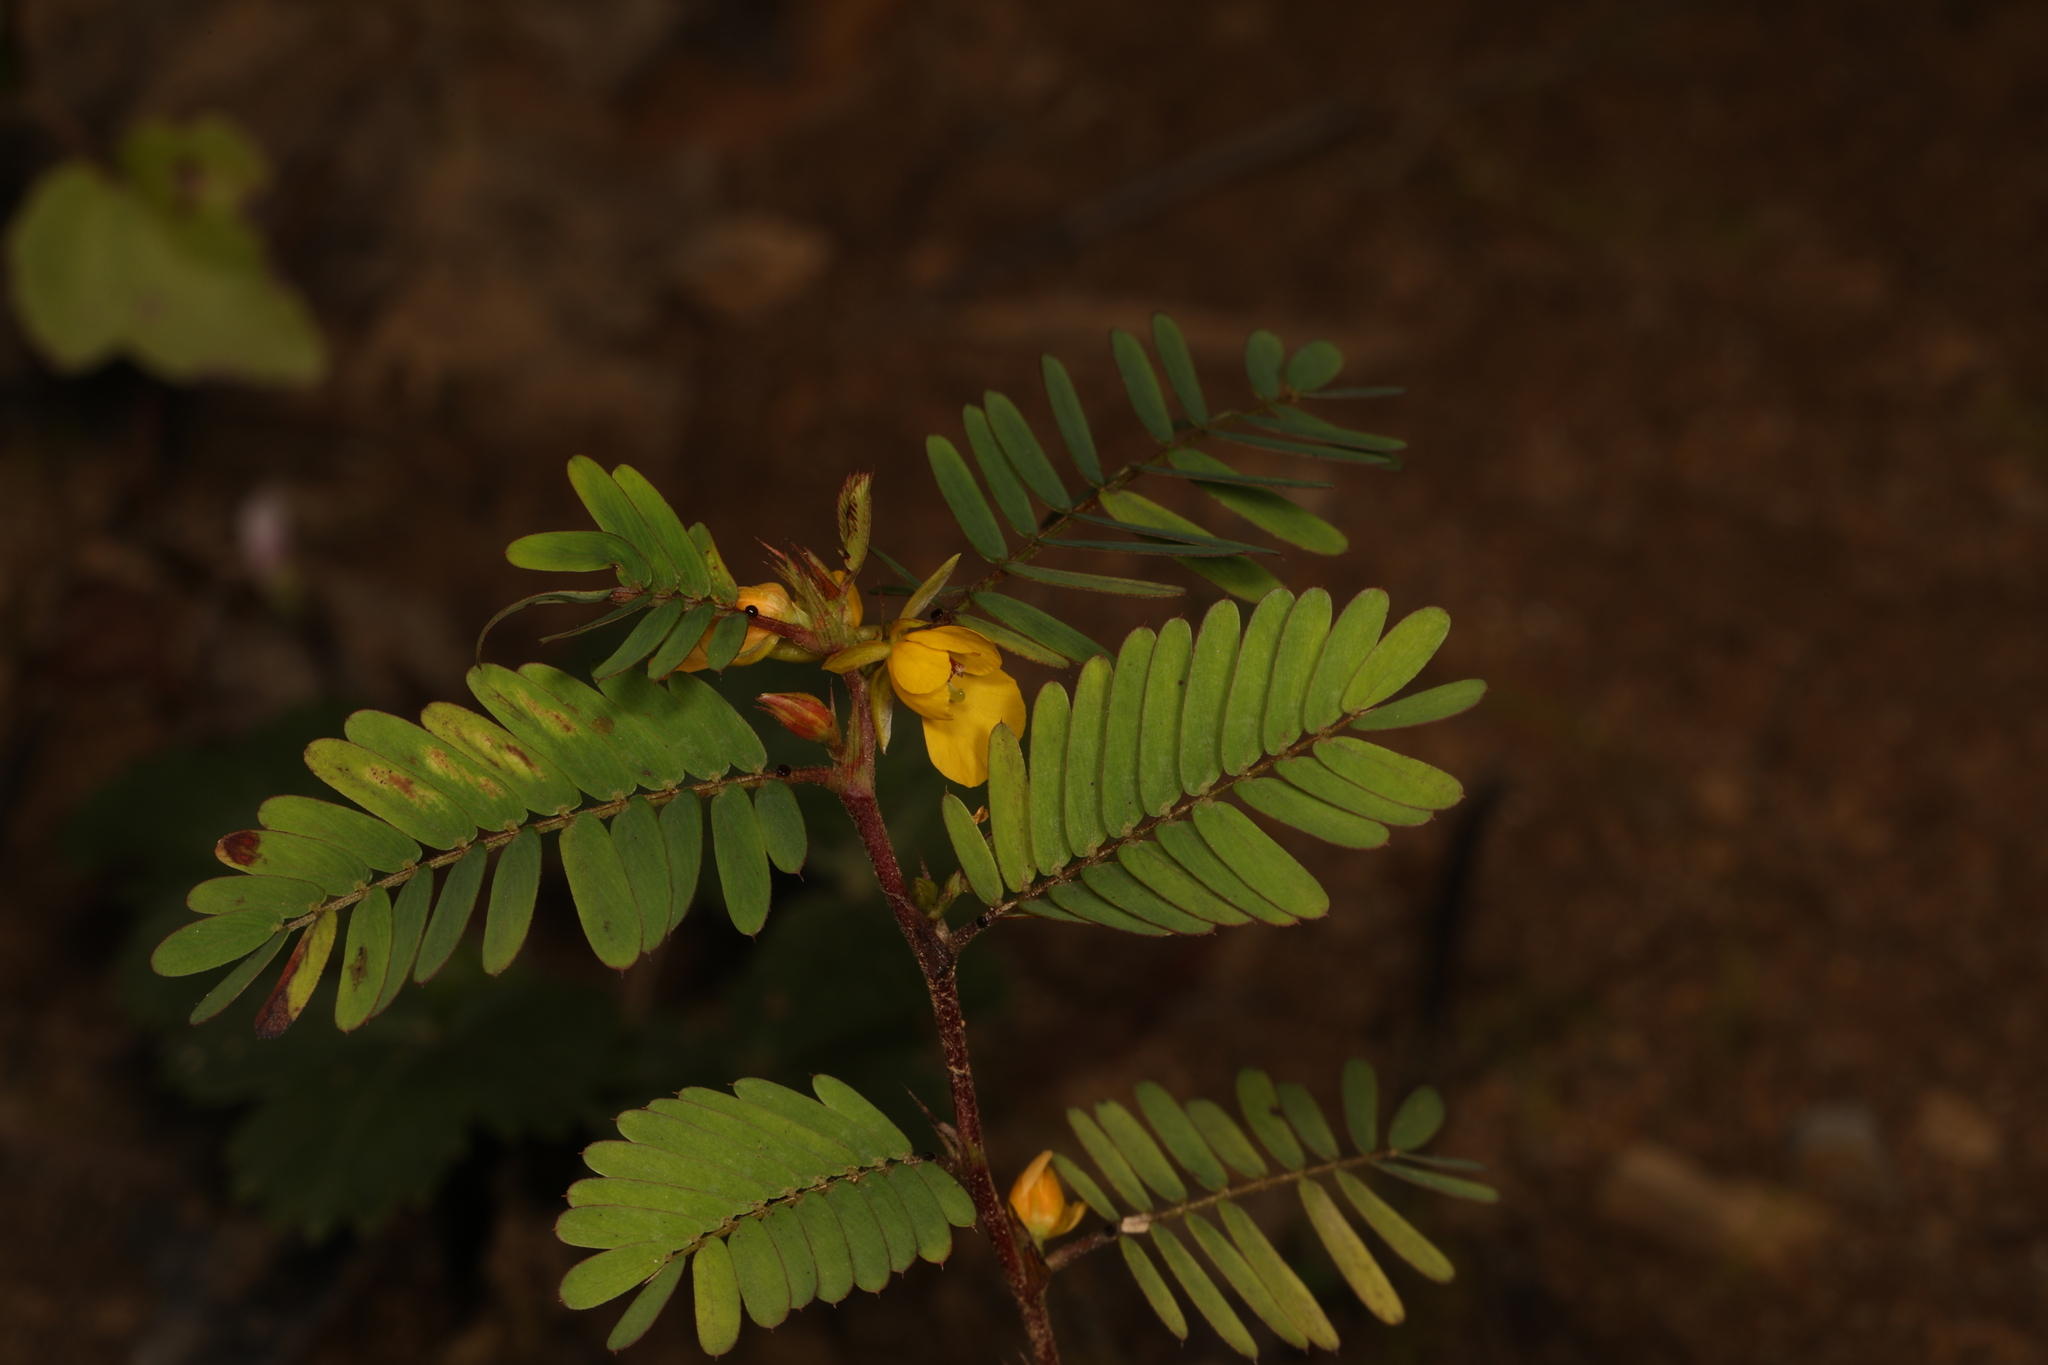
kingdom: Plantae
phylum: Tracheophyta
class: Magnoliopsida
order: Fabales
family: Fabaceae
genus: Chamaecrista
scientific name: Chamaecrista nictitans
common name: Sensitive cassia
